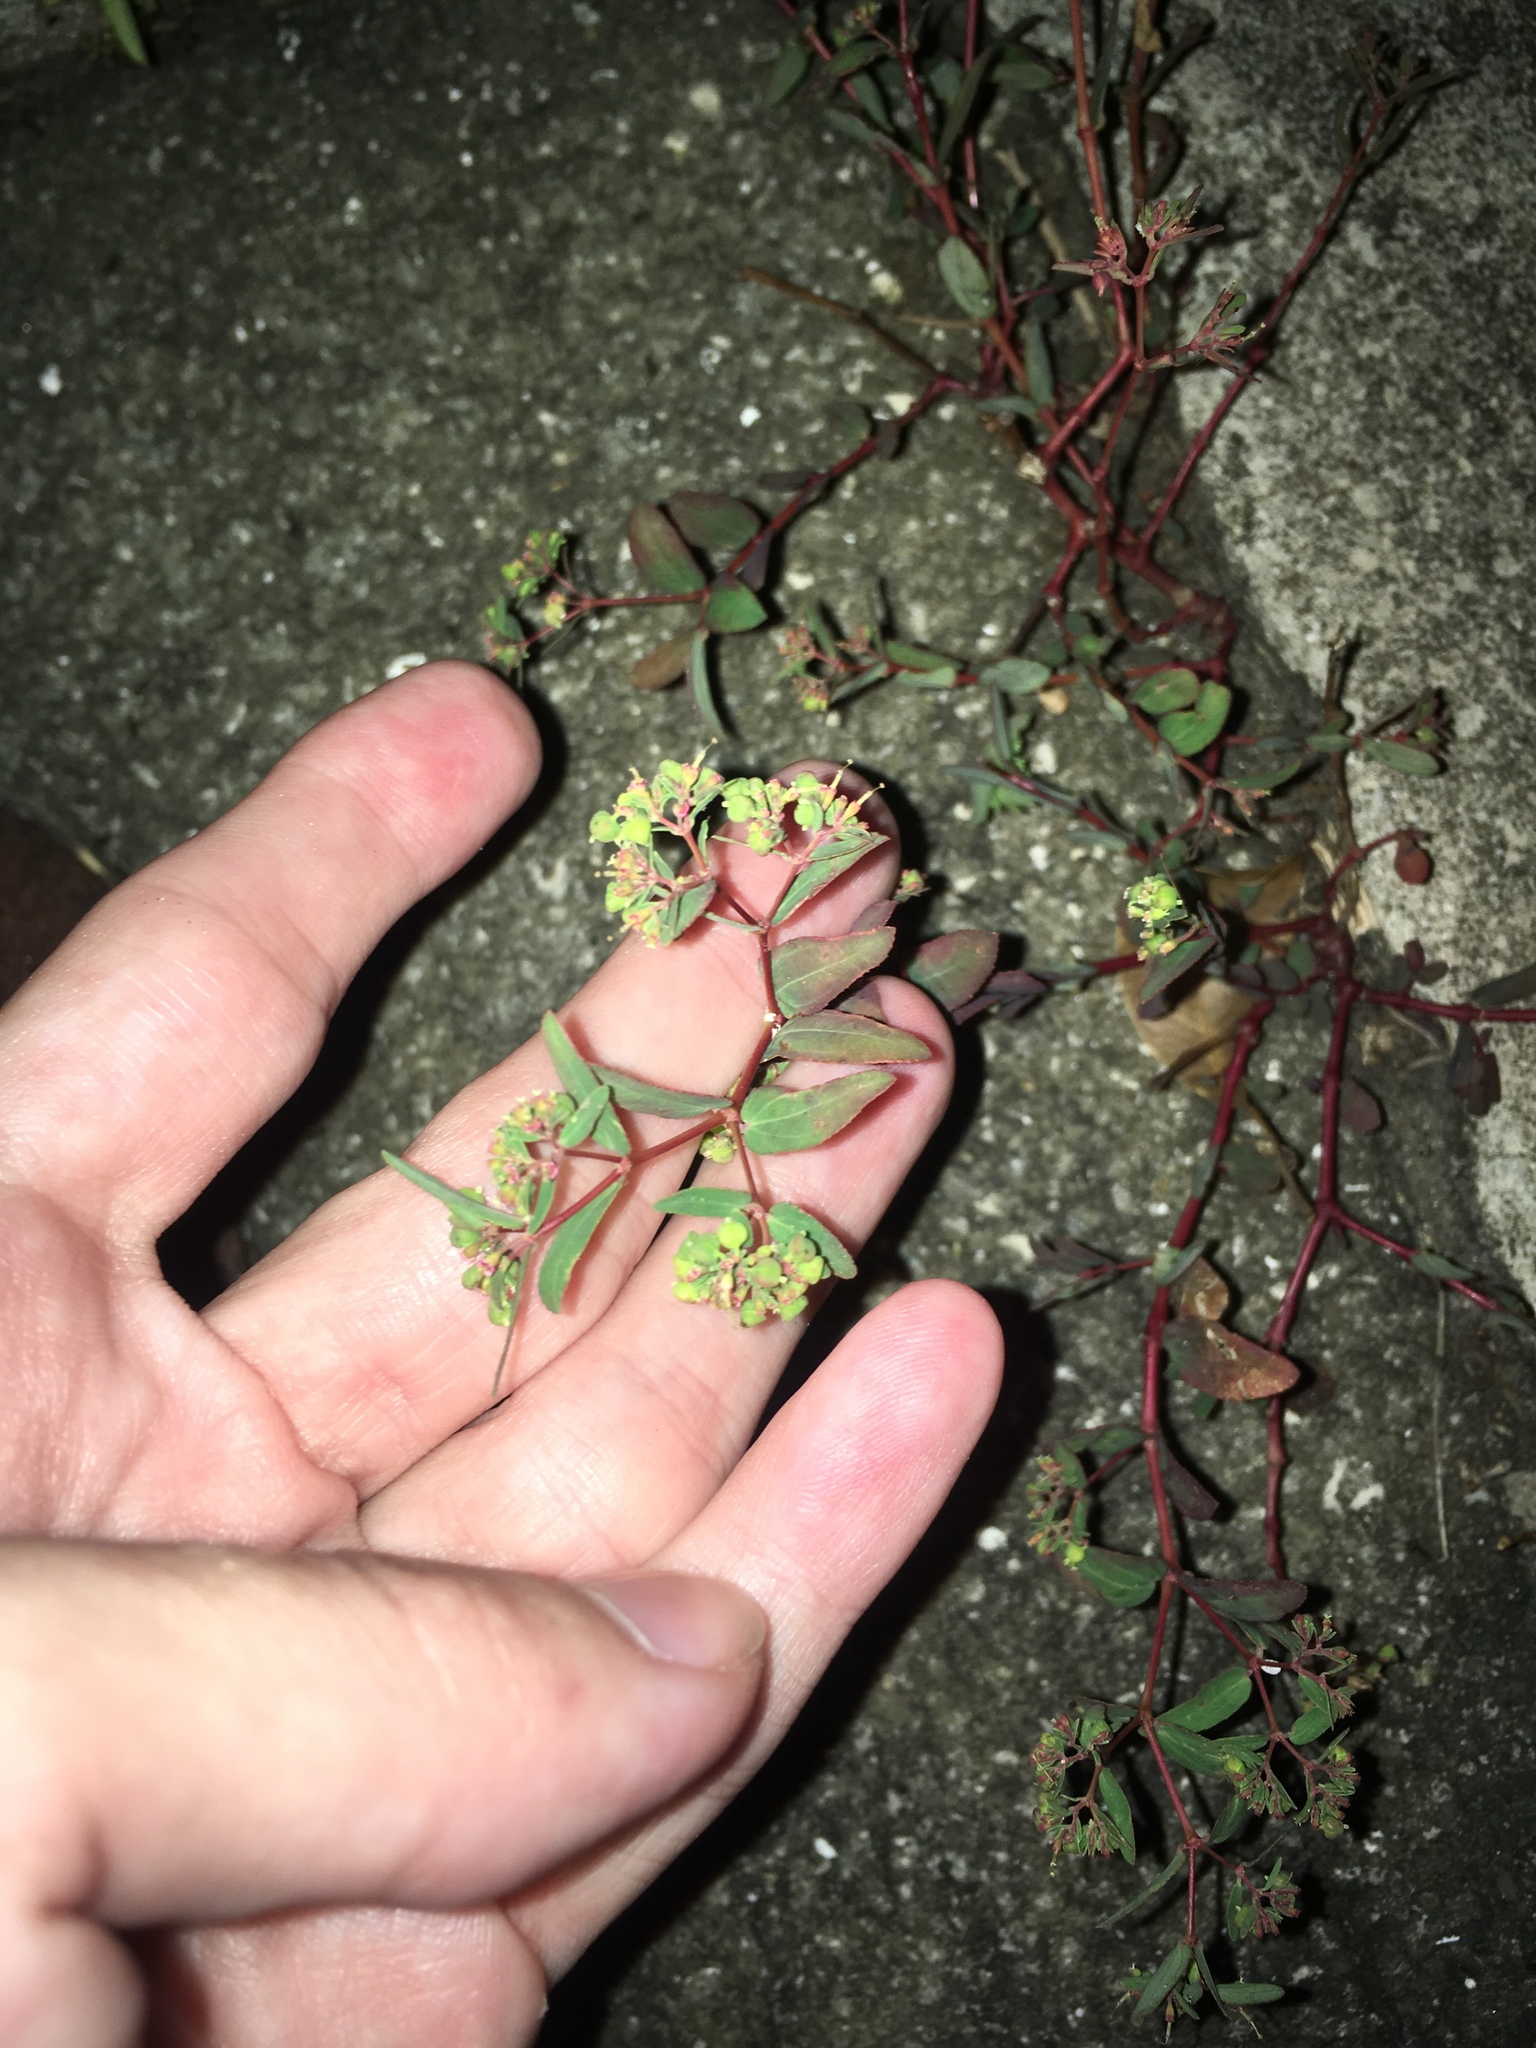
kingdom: Plantae
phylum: Tracheophyta
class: Magnoliopsida
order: Malpighiales
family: Euphorbiaceae
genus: Euphorbia
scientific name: Euphorbia hyssopifolia
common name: Hyssopleaf sandmat
